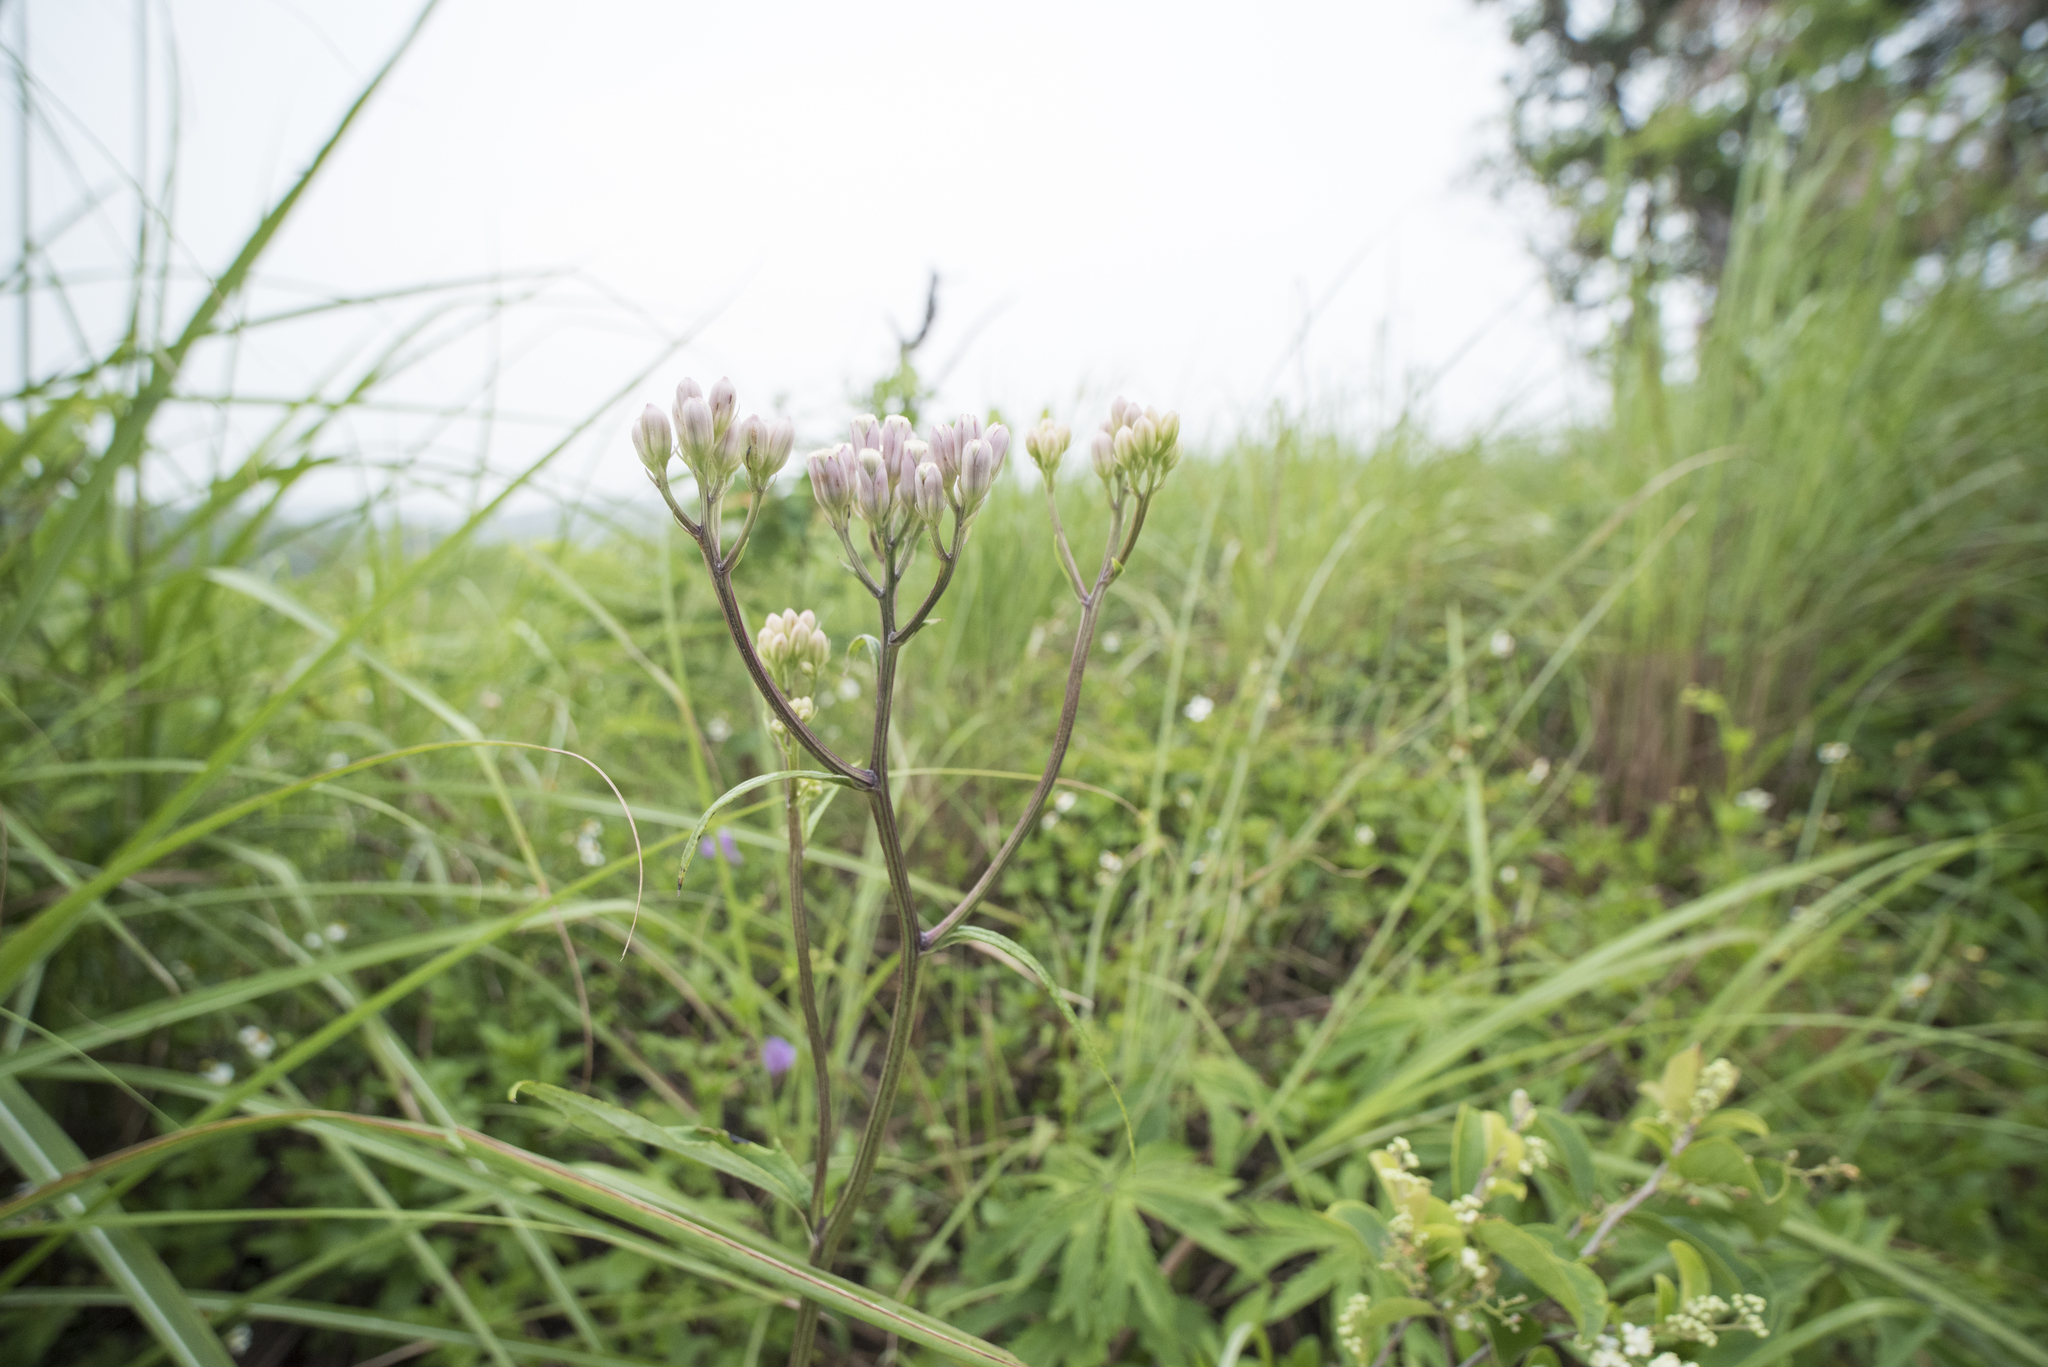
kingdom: Plantae
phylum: Tracheophyta
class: Magnoliopsida
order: Asterales
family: Asteraceae
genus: Syneilesis
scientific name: Syneilesis hayatae
